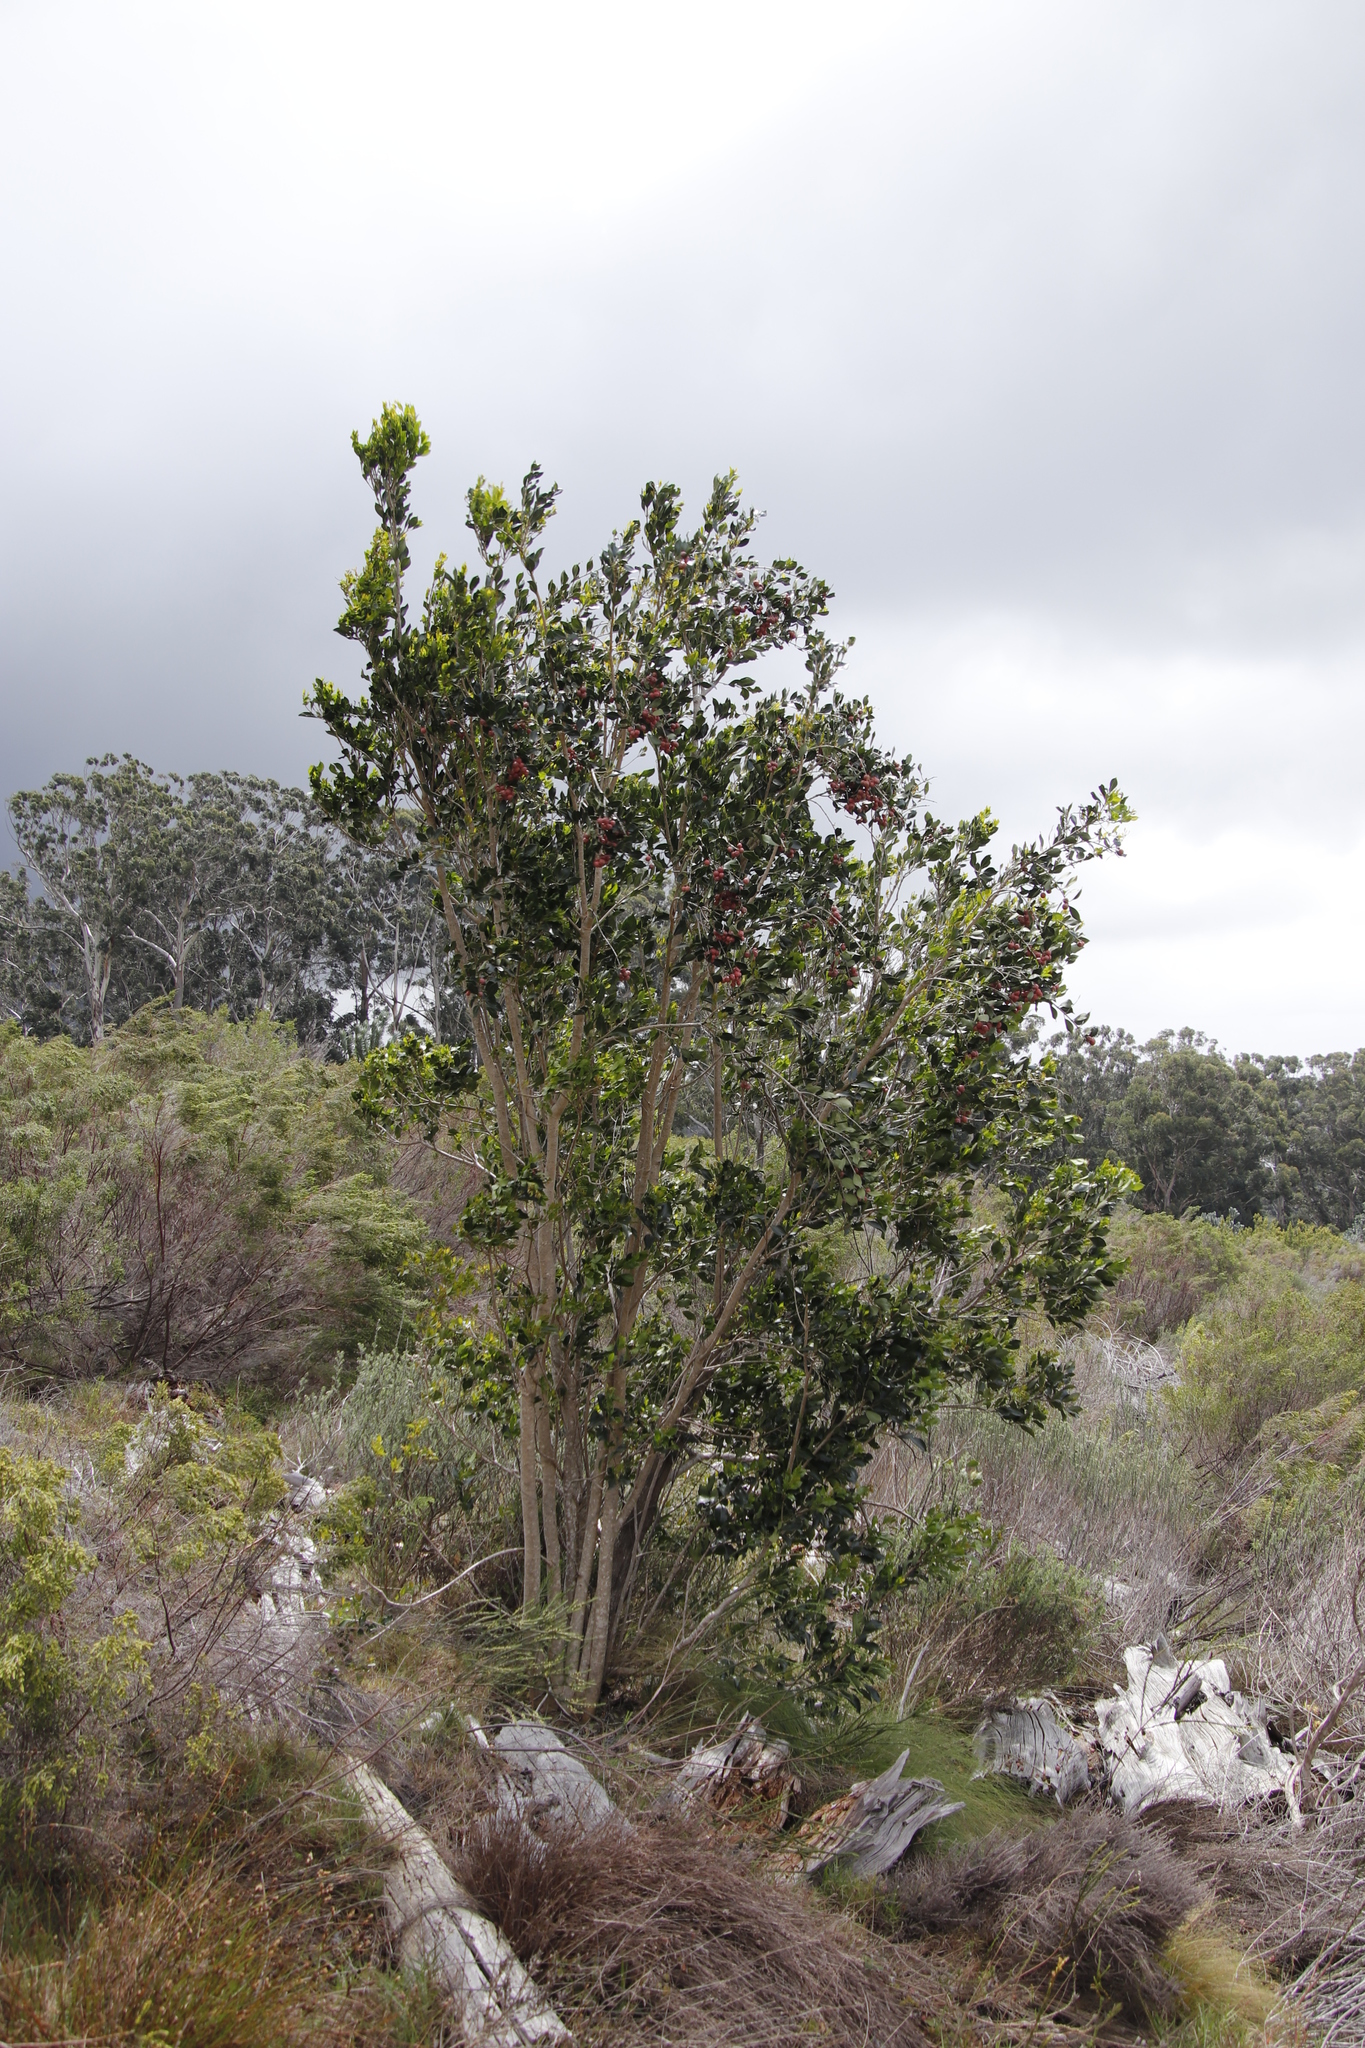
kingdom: Plantae
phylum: Tracheophyta
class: Magnoliopsida
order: Myrtales
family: Penaeaceae
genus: Olinia
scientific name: Olinia ventosa
